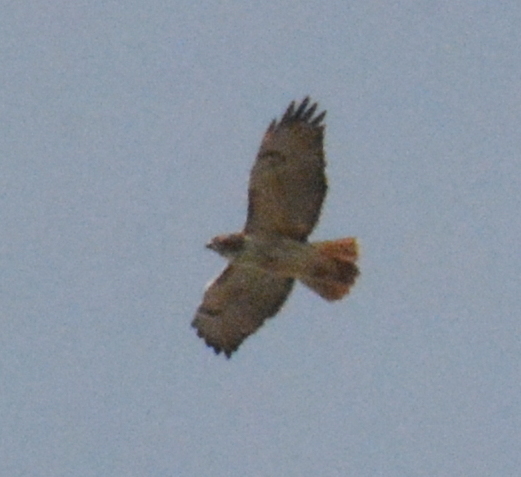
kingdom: Animalia
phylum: Chordata
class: Aves
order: Accipitriformes
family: Accipitridae
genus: Buteo
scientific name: Buteo jamaicensis
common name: Red-tailed hawk
